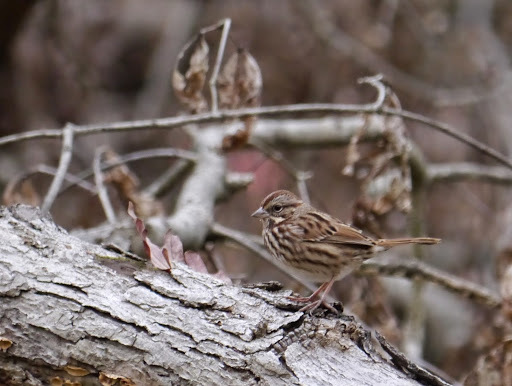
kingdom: Animalia
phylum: Chordata
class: Aves
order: Passeriformes
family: Passerellidae
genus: Melospiza
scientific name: Melospiza melodia
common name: Song sparrow
